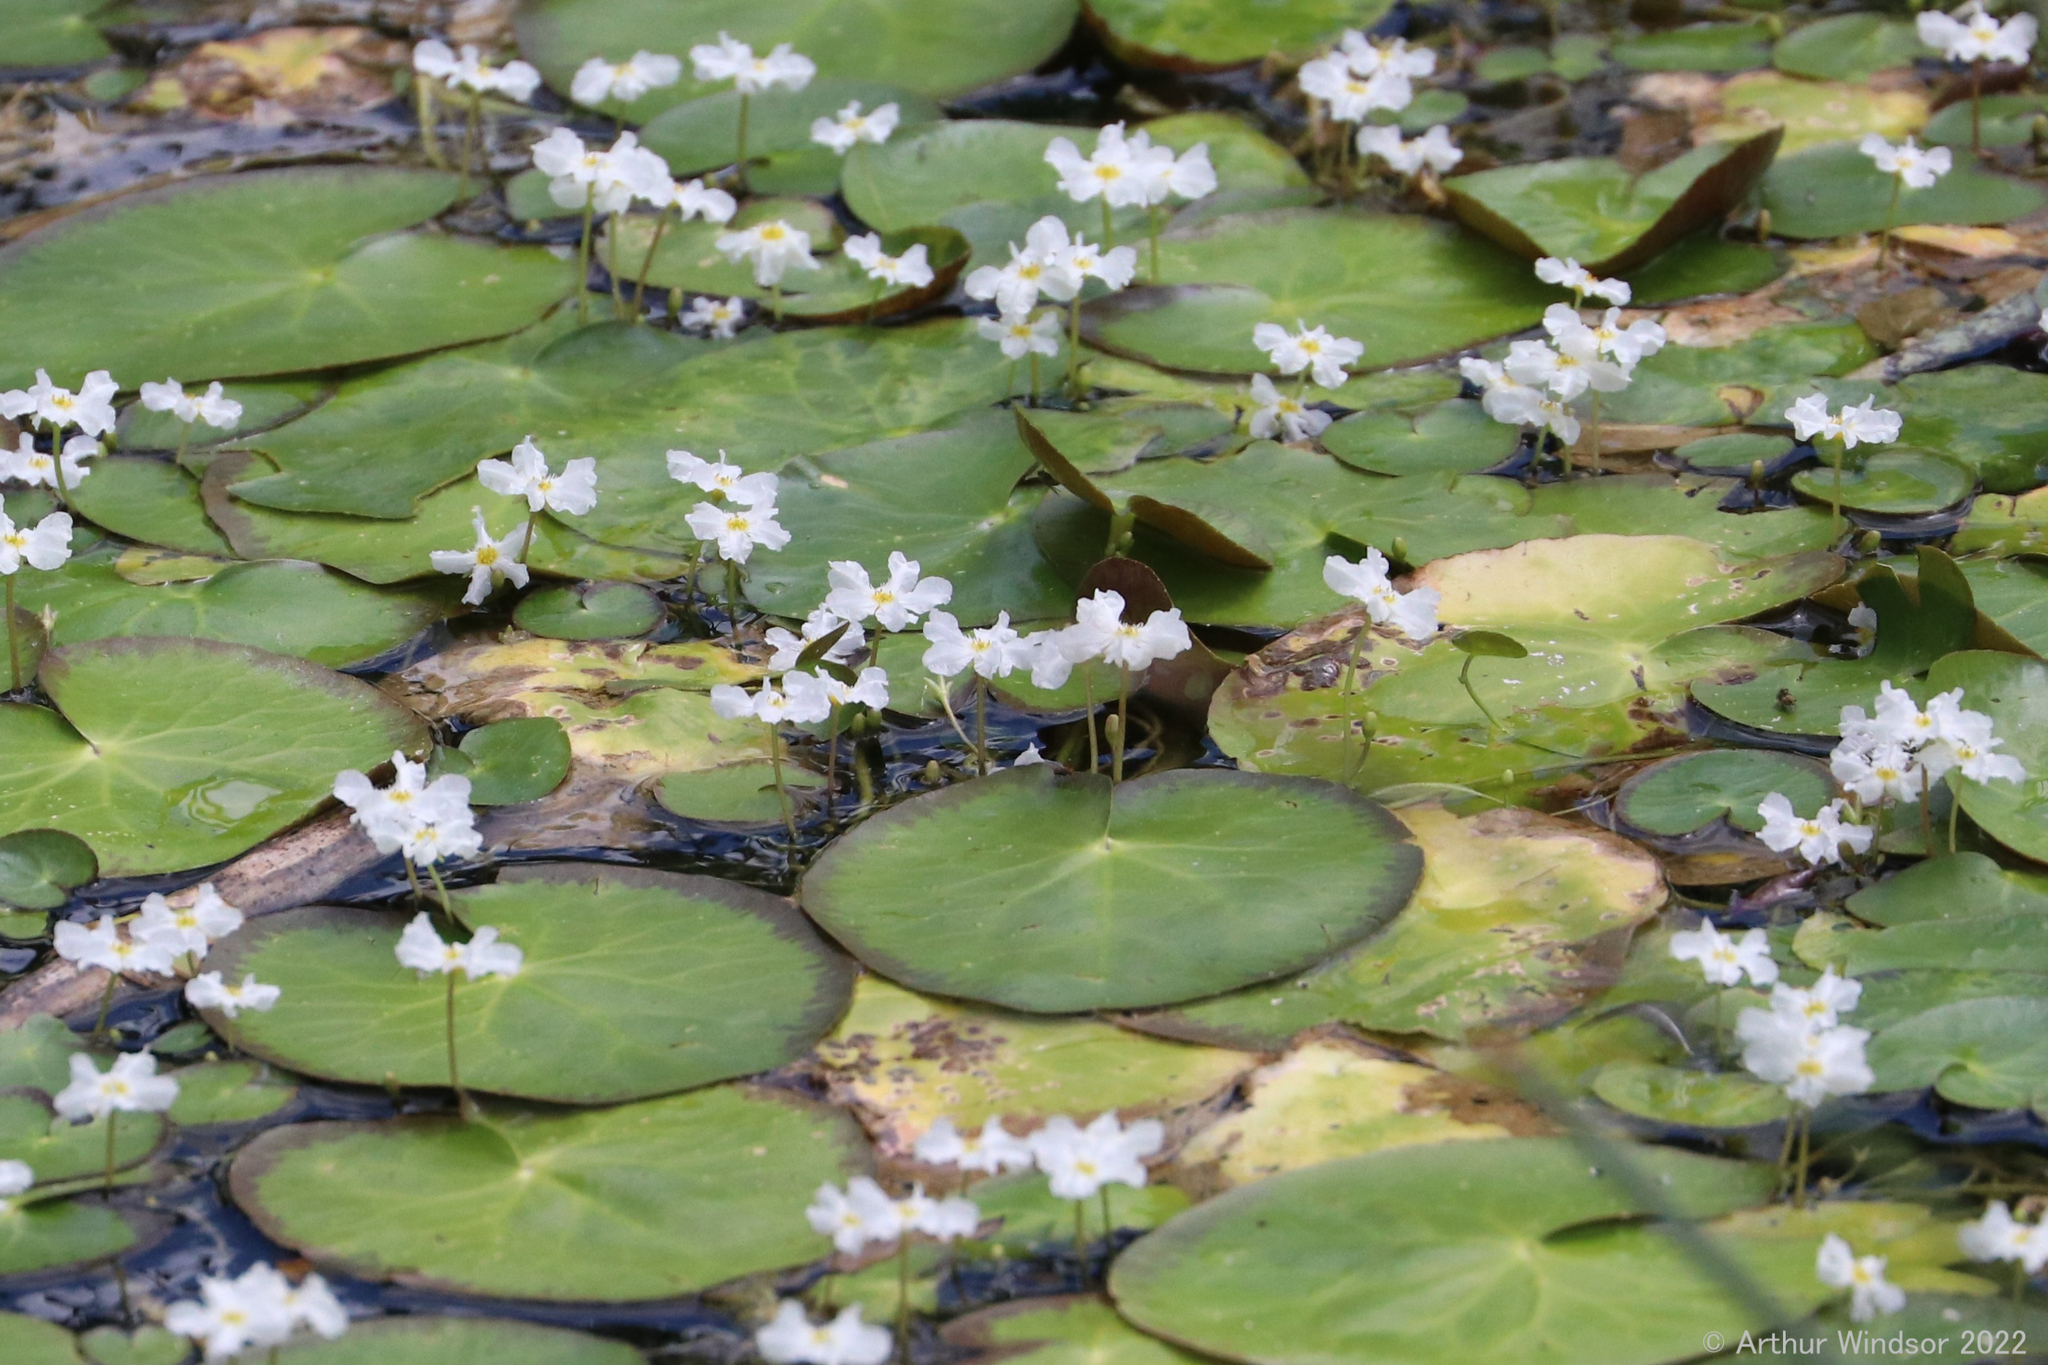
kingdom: Plantae
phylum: Tracheophyta
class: Magnoliopsida
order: Asterales
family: Menyanthaceae
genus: Nymphoides
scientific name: Nymphoides hydrophylla
